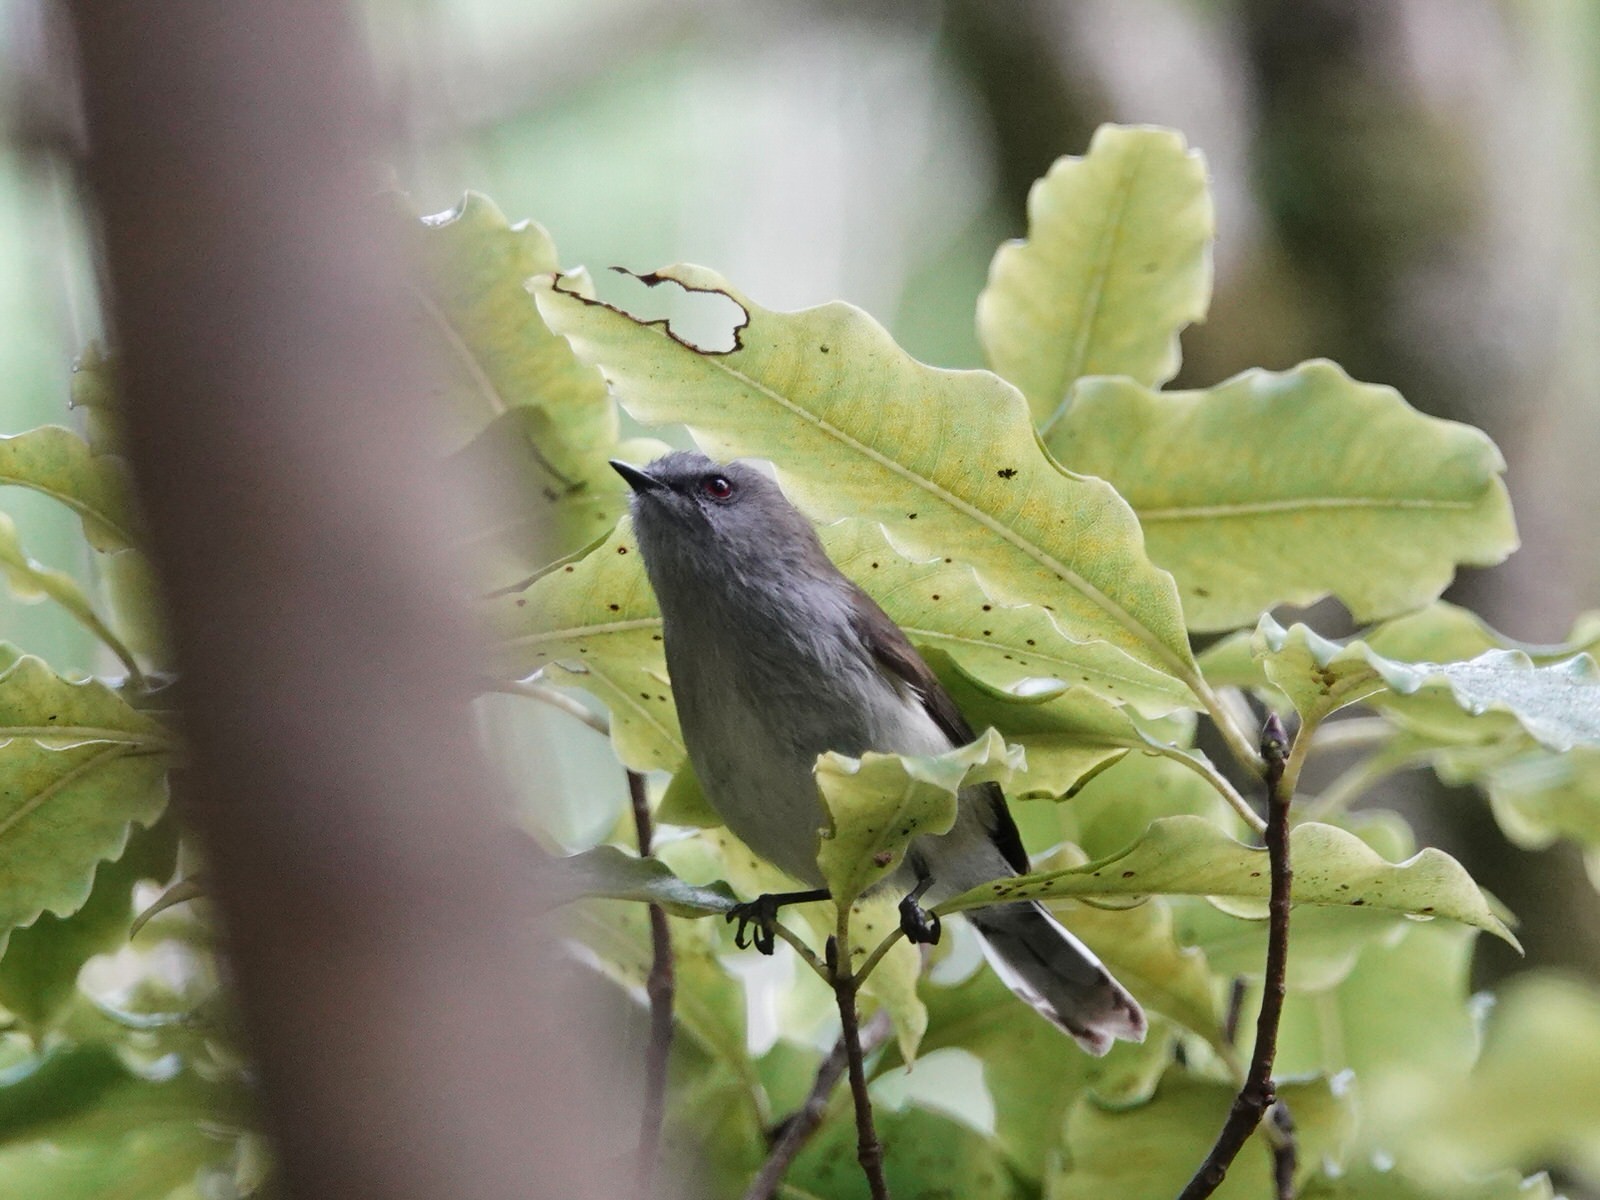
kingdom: Animalia
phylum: Chordata
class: Aves
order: Passeriformes
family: Acanthizidae
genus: Gerygone
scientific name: Gerygone igata
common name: Grey gerygone
